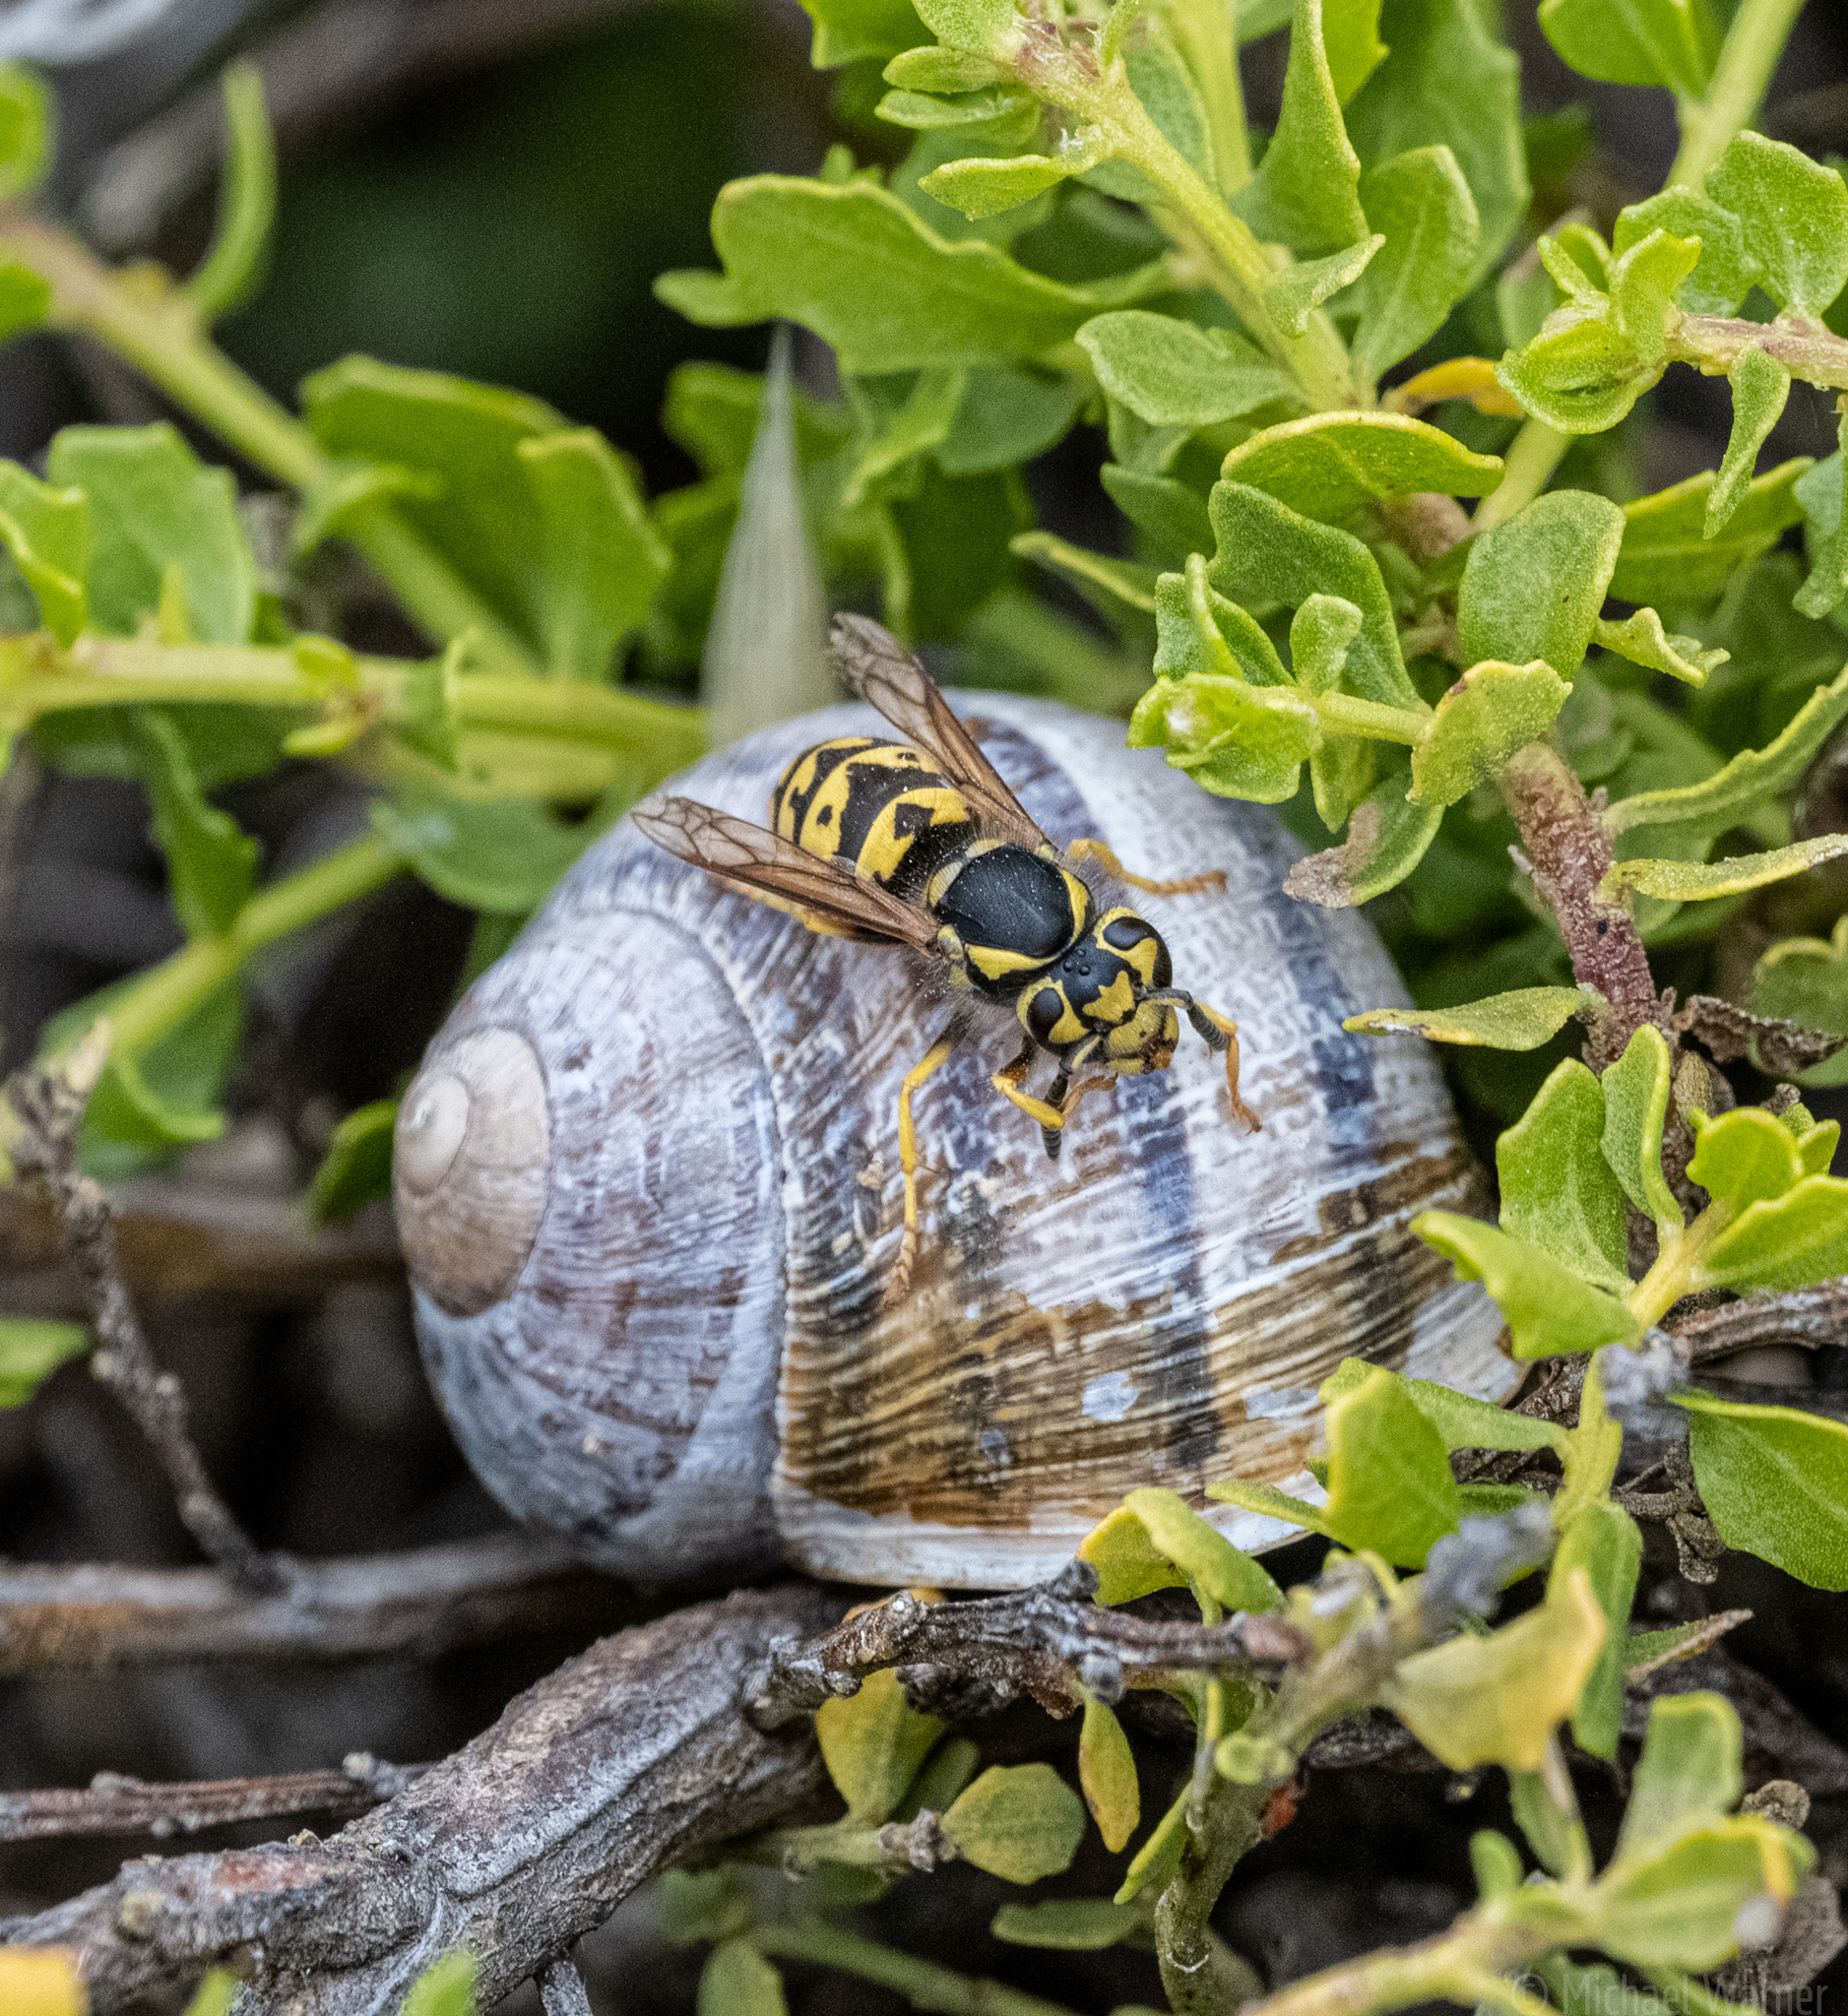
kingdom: Animalia
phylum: Arthropoda
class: Insecta
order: Hymenoptera
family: Vespidae
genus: Vespula
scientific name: Vespula pensylvanica
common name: Western yellowjacket
